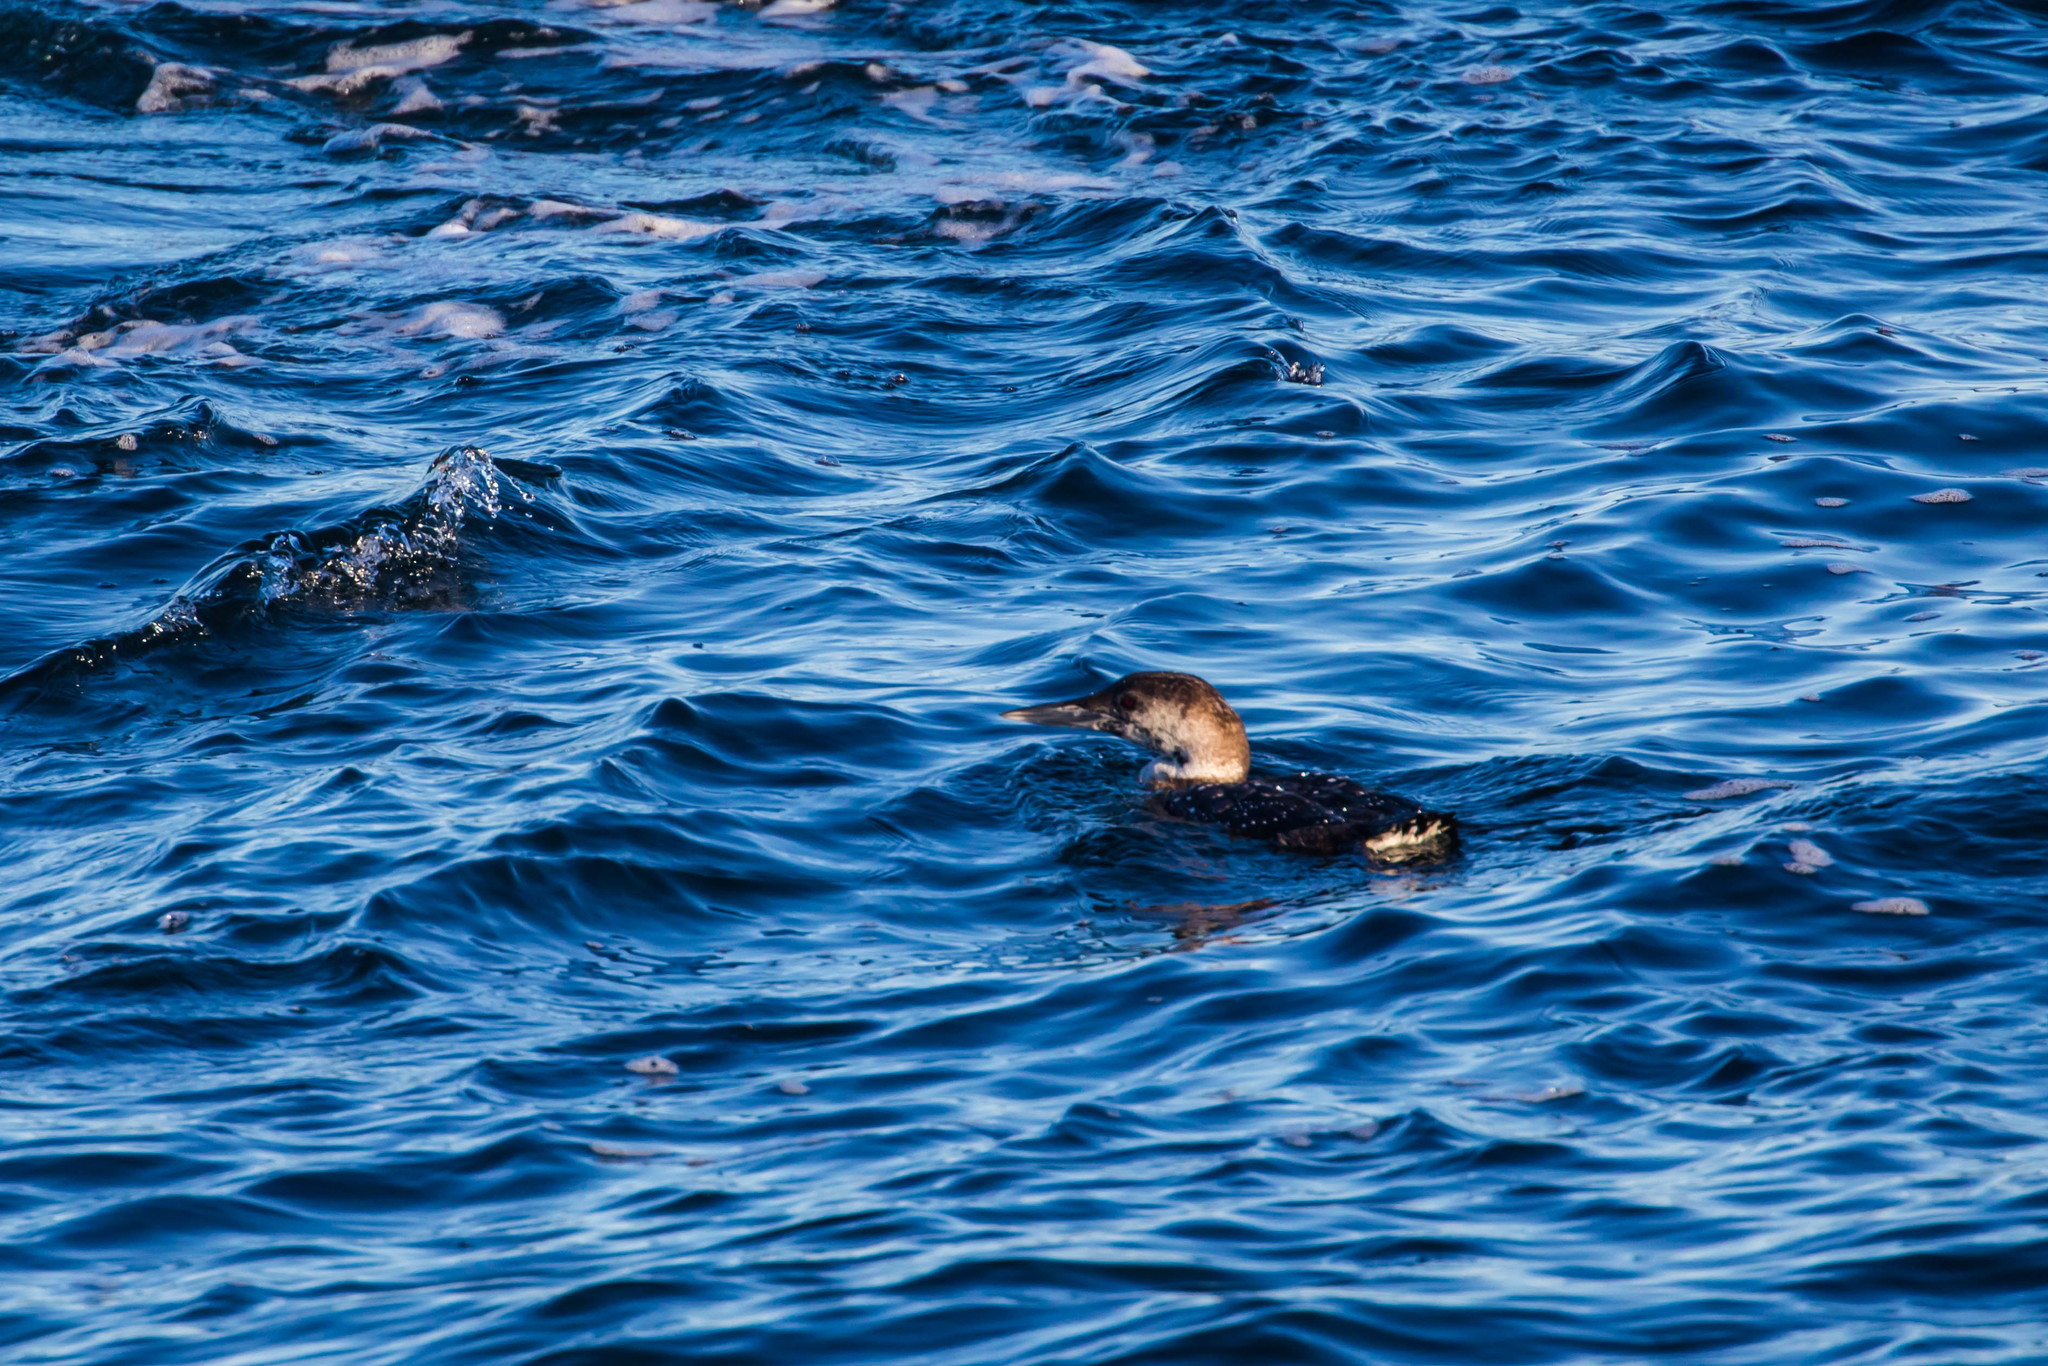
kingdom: Animalia
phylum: Chordata
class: Aves
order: Gaviiformes
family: Gaviidae
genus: Gavia
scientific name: Gavia immer
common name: Common loon
